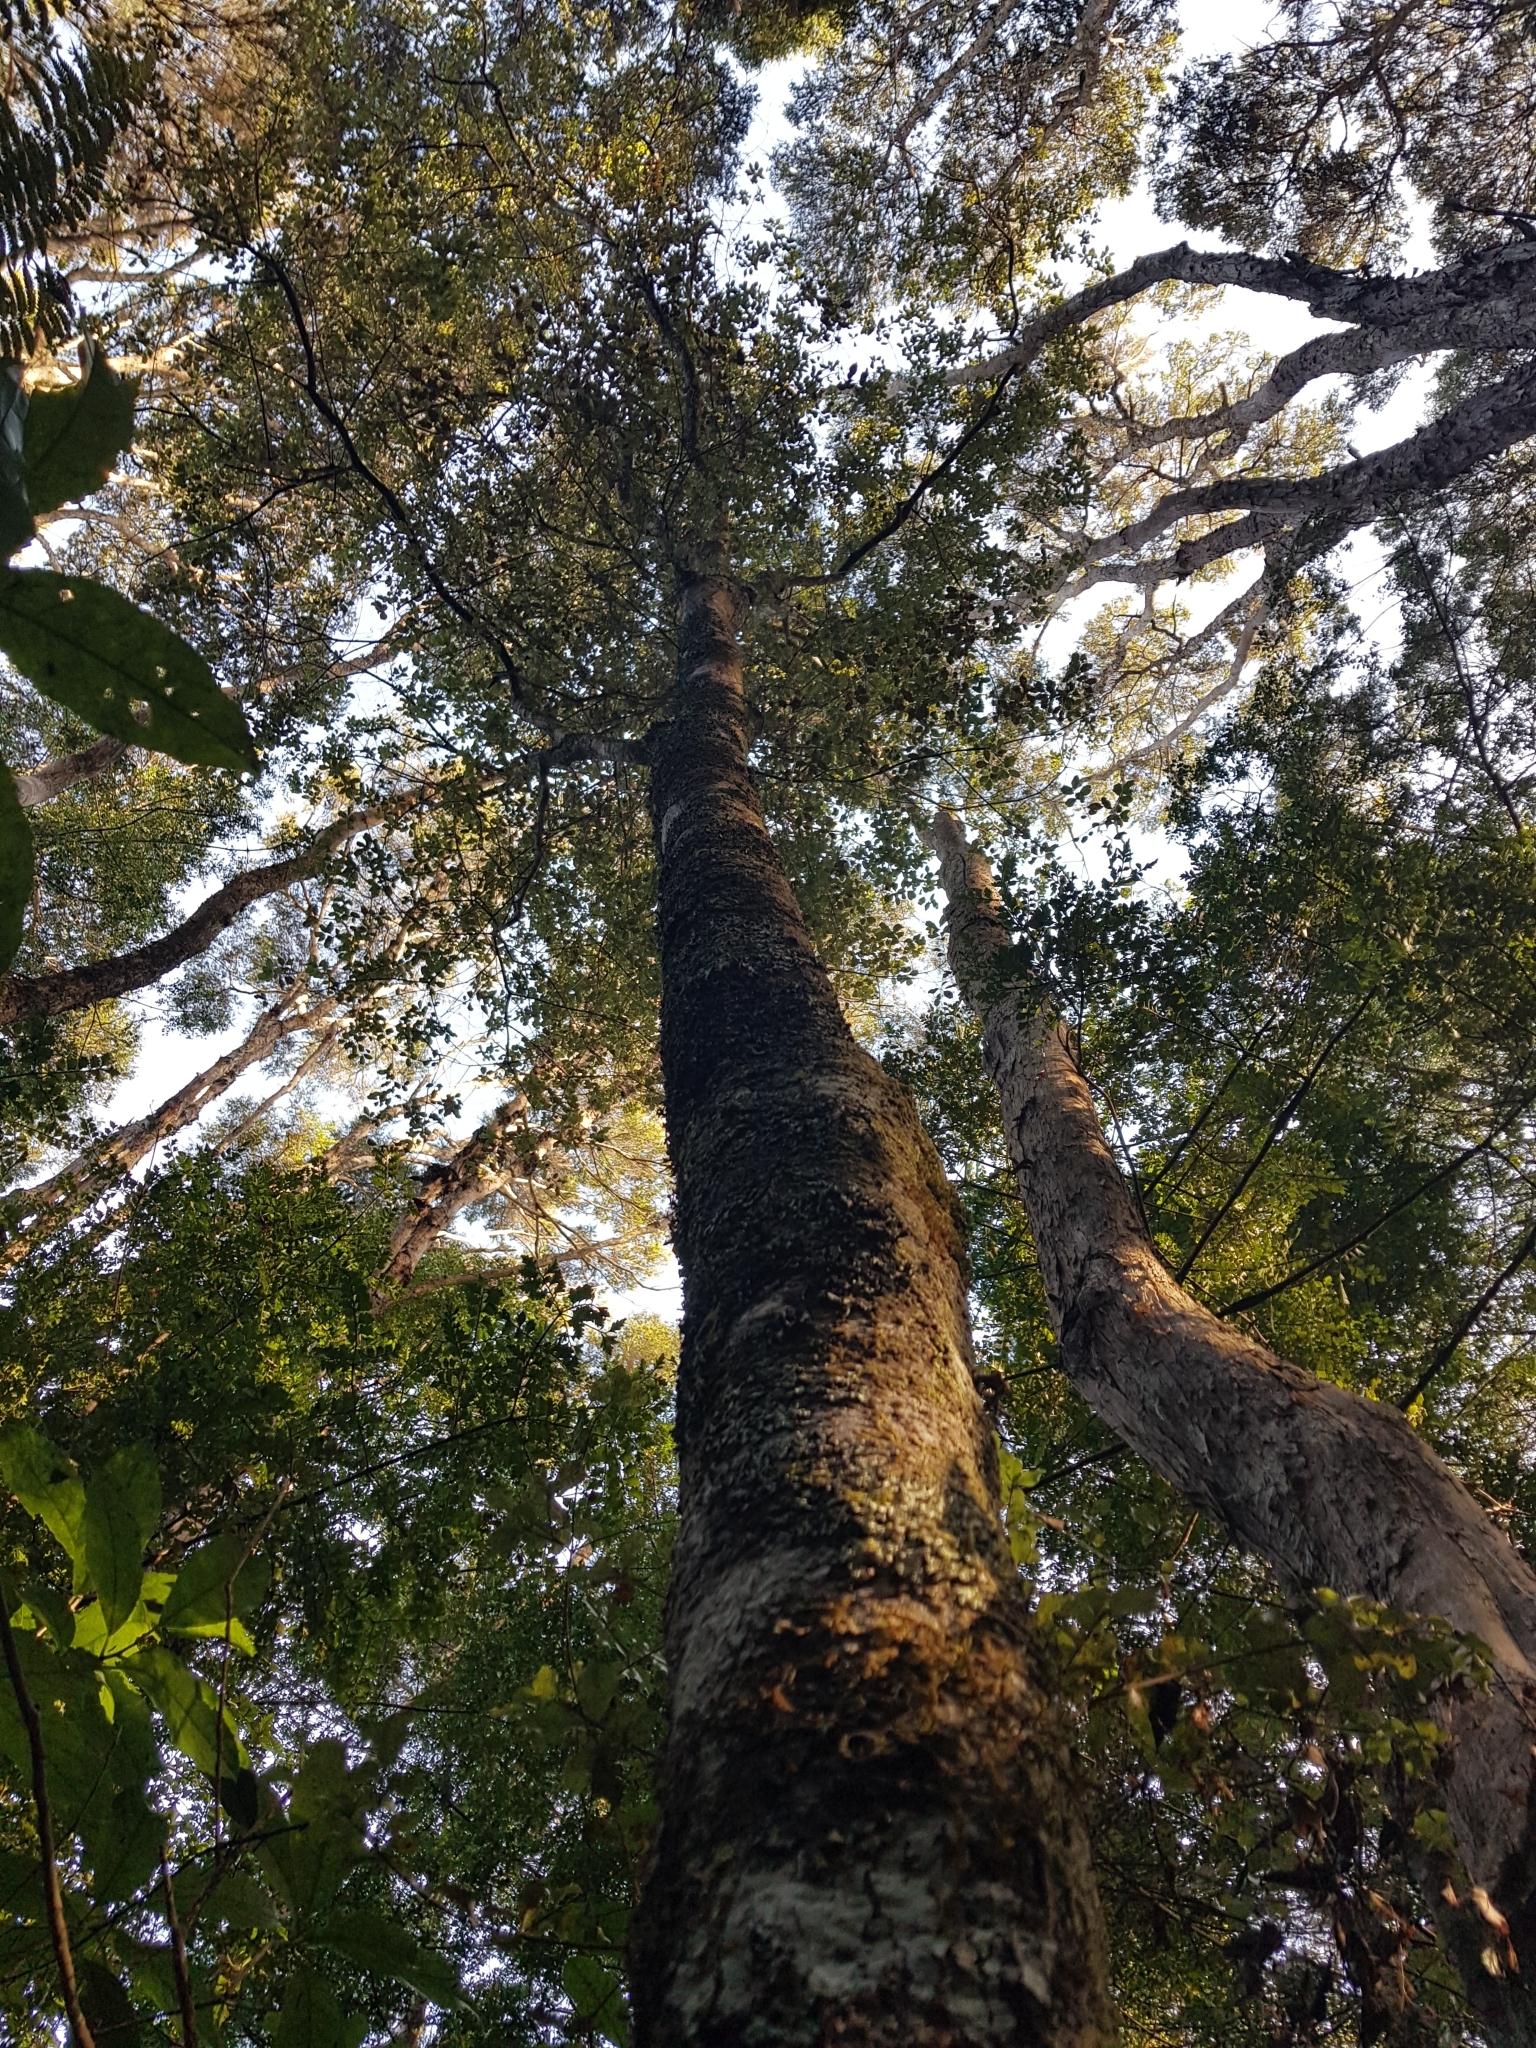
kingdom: Plantae
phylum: Tracheophyta
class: Magnoliopsida
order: Apiales
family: Pittosporaceae
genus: Pittosporum
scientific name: Pittosporum tenuifolium
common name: Kohuhu
